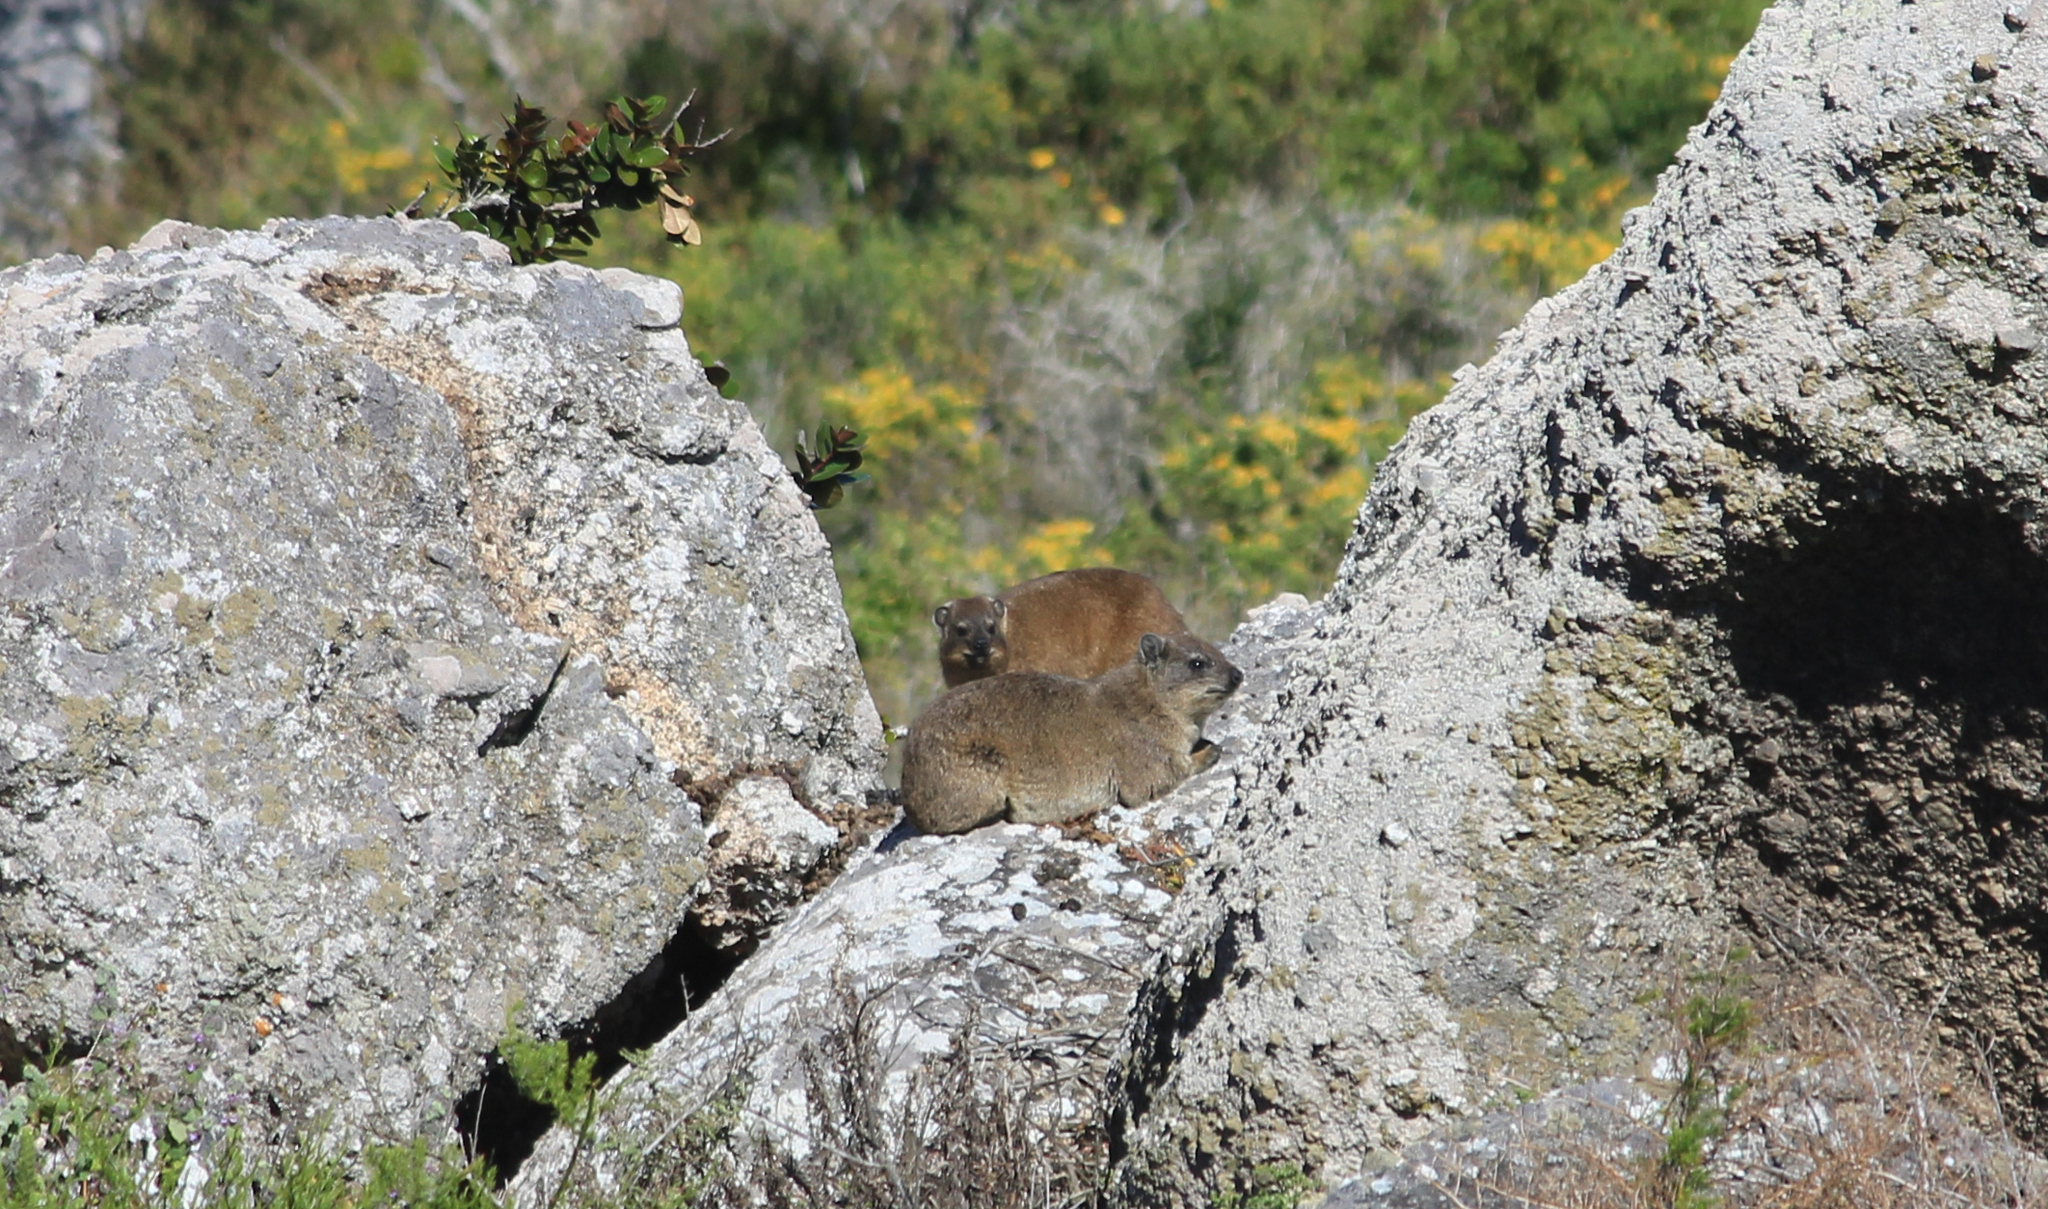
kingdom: Animalia
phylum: Chordata
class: Mammalia
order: Hyracoidea
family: Procaviidae
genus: Procavia
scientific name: Procavia capensis
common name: Rock hyrax
